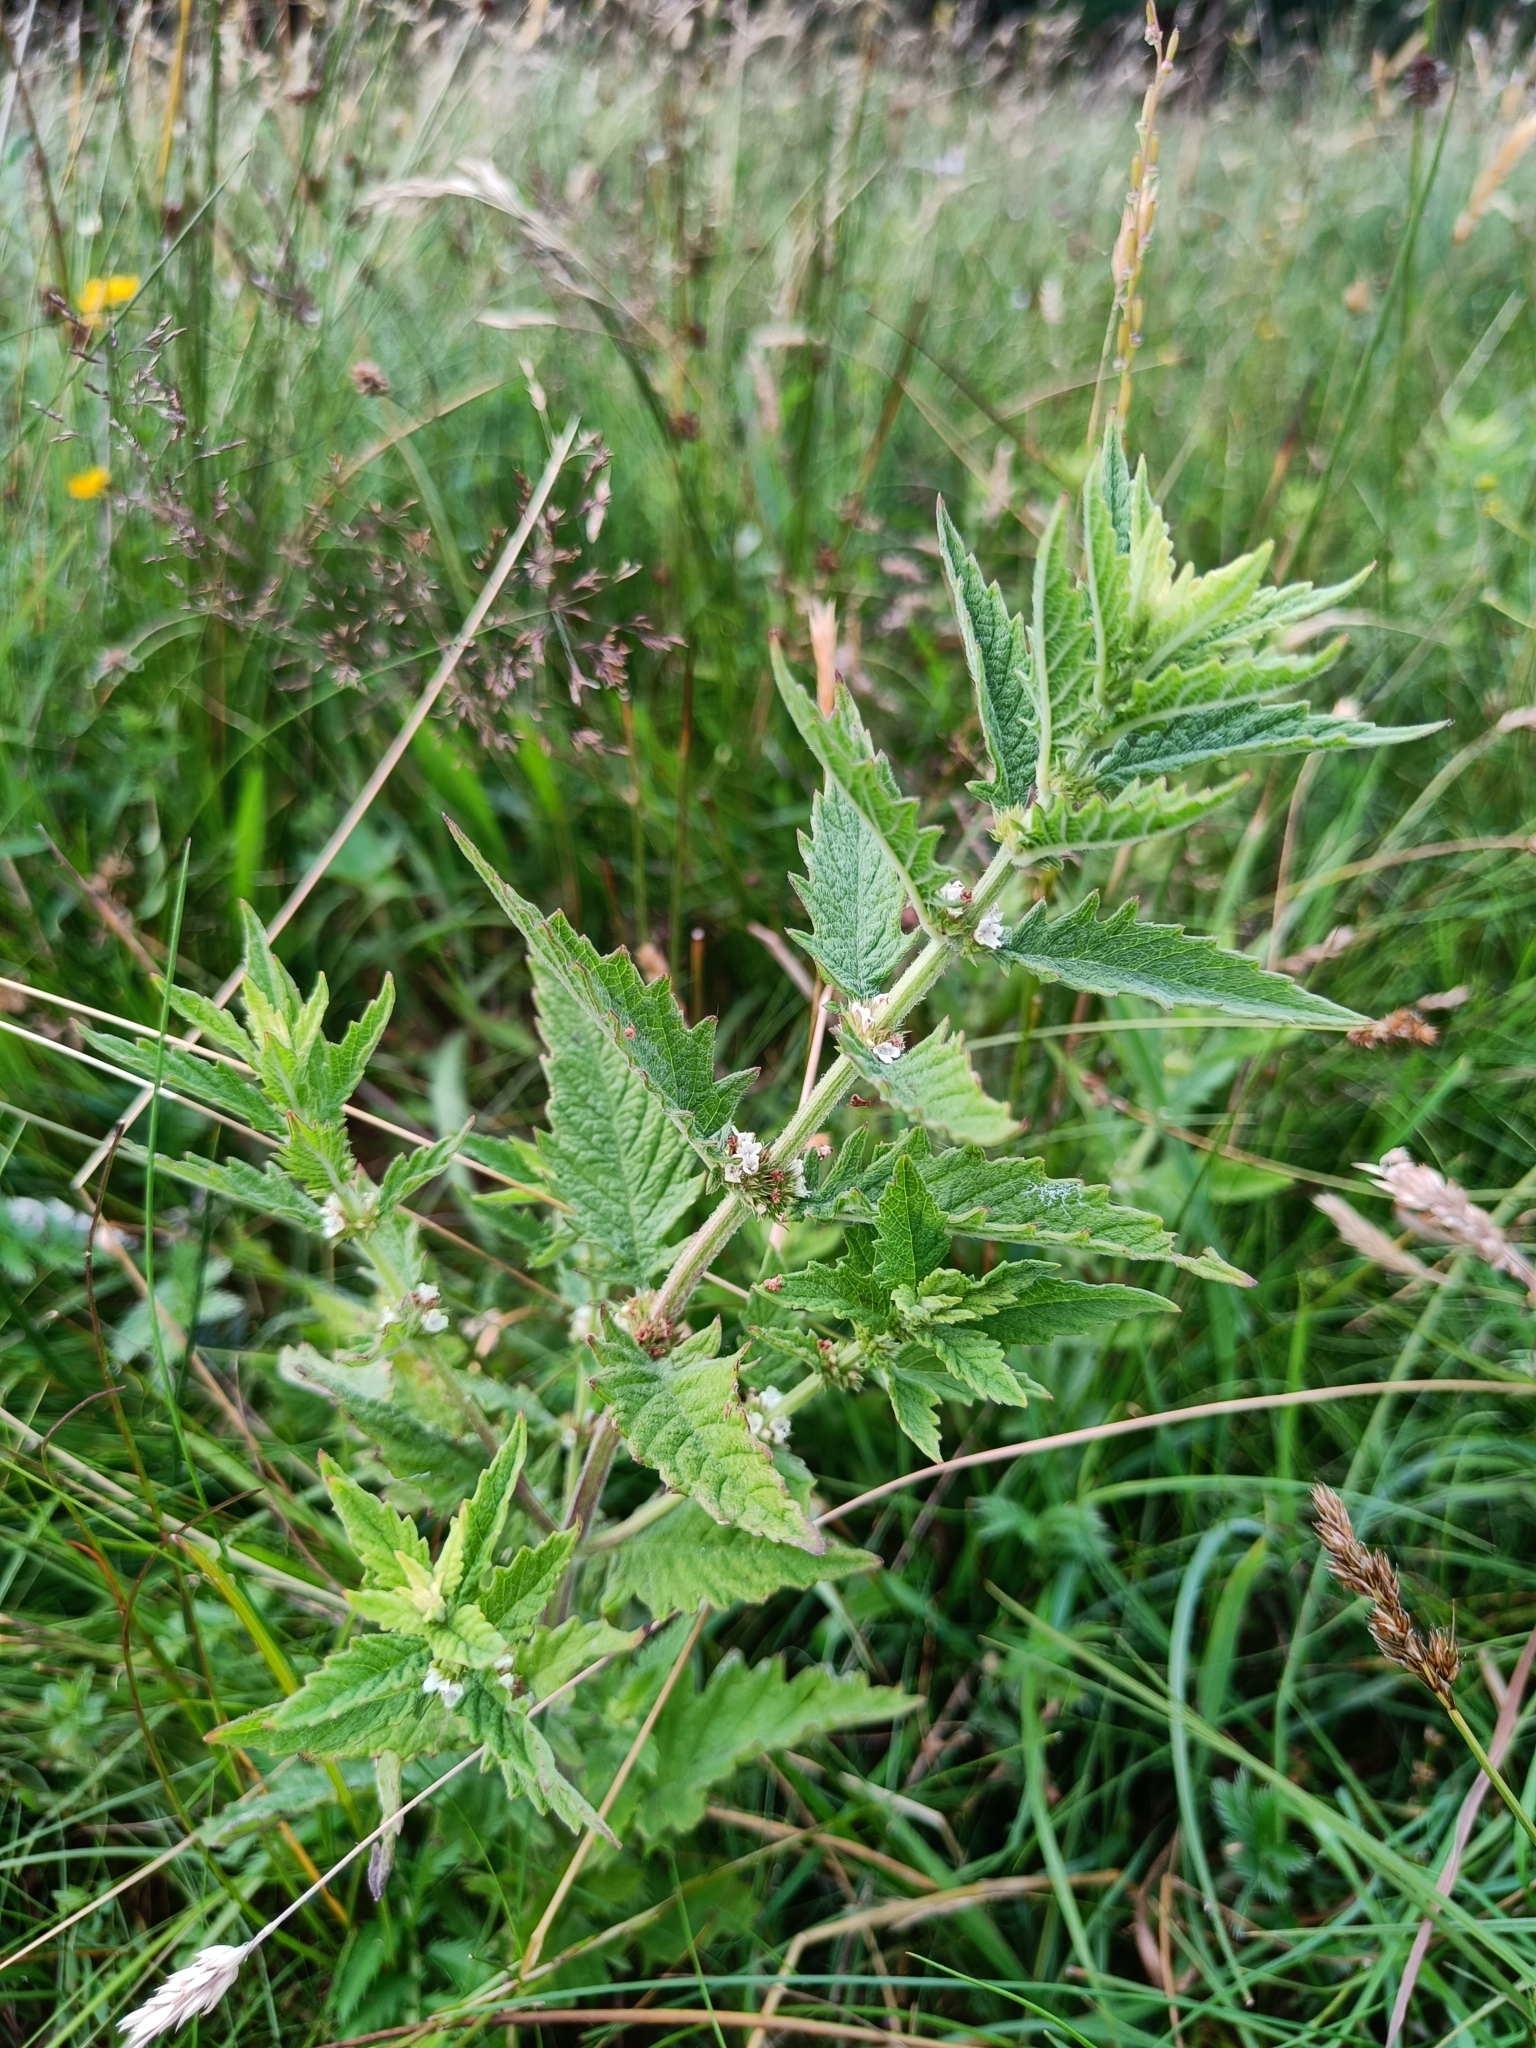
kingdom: Plantae
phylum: Tracheophyta
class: Magnoliopsida
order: Lamiales
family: Lamiaceae
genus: Lycopus
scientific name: Lycopus europaeus
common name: European bugleweed
